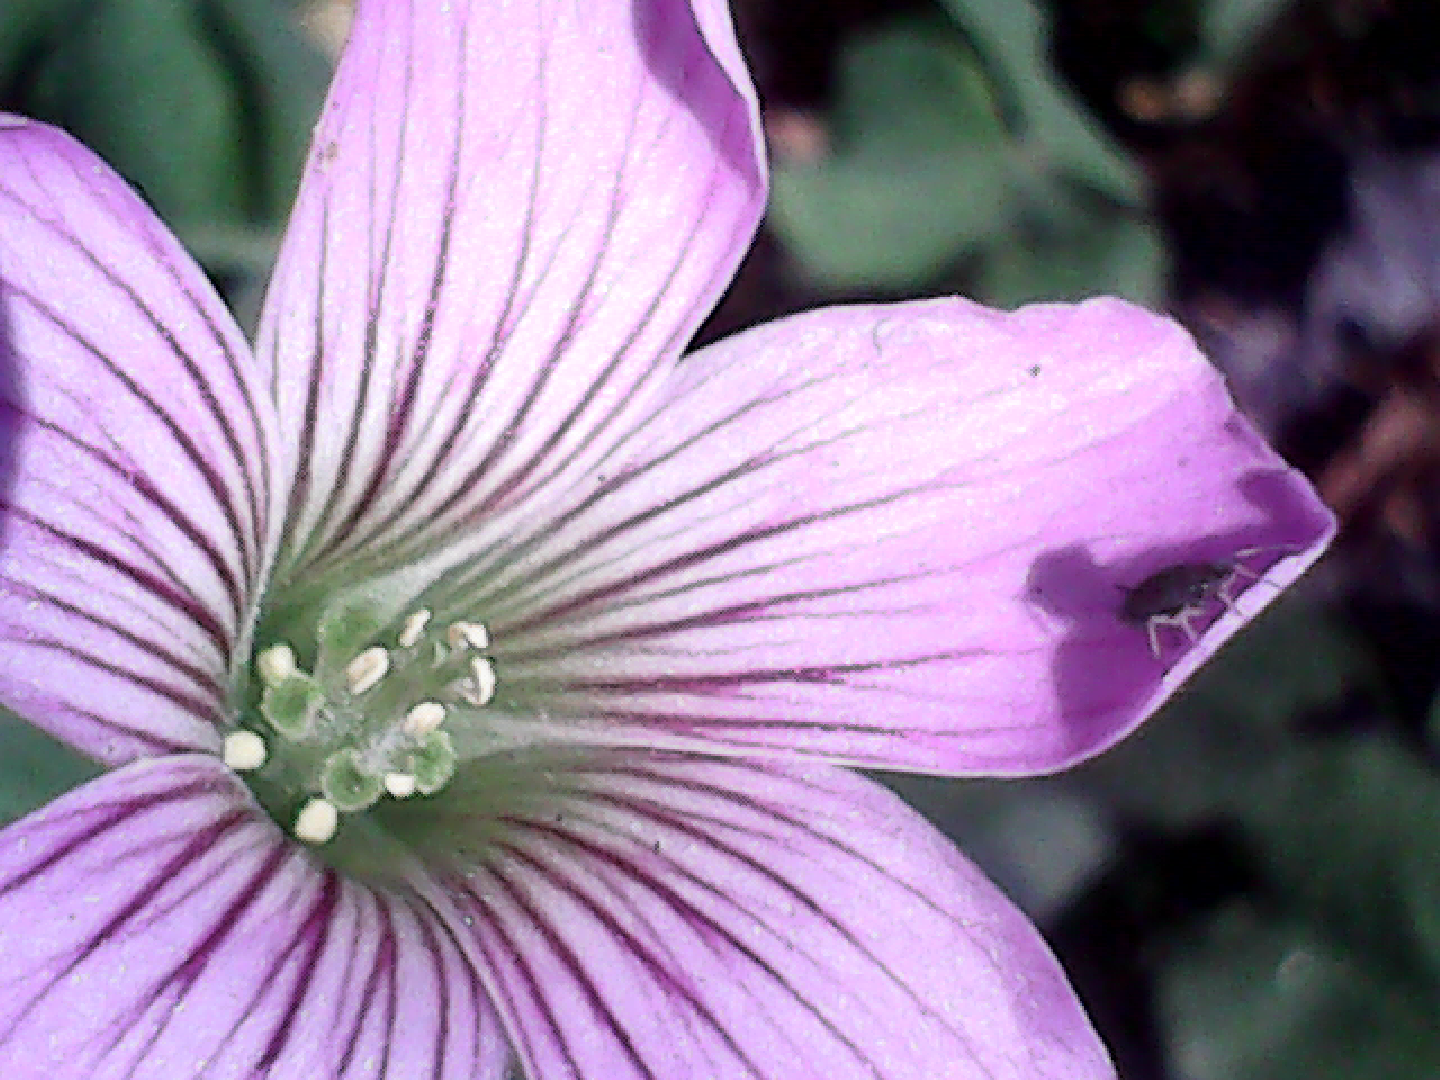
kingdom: Plantae
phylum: Tracheophyta
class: Magnoliopsida
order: Oxalidales
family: Oxalidaceae
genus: Oxalis
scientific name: Oxalis debilis
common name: Large-flowered pink-sorrel
